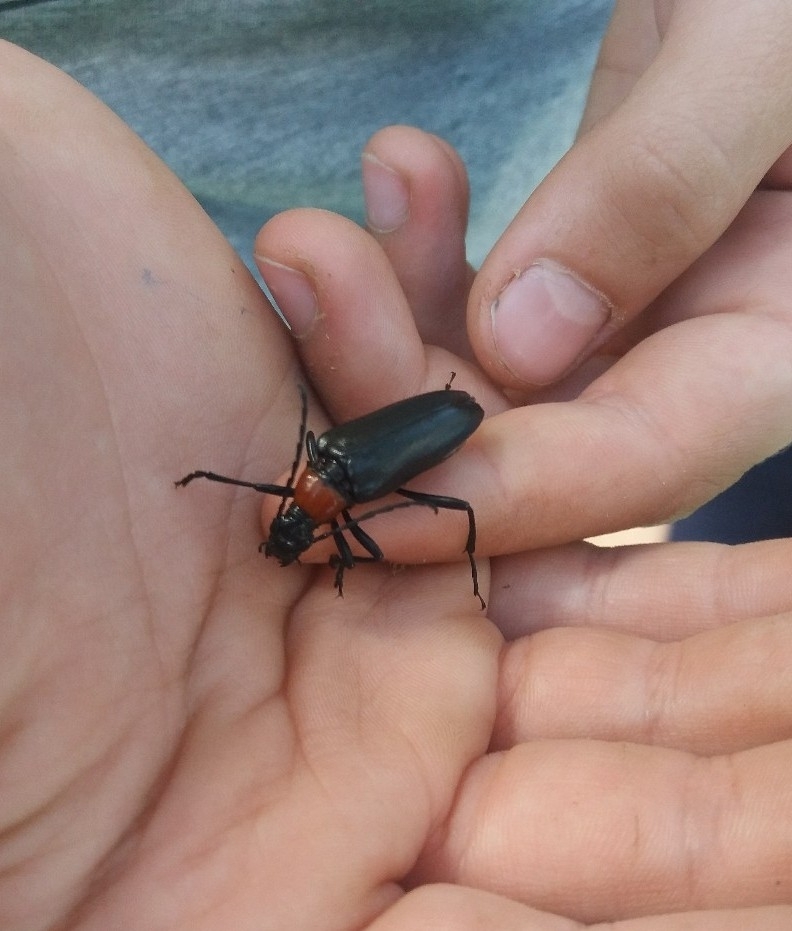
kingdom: Animalia
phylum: Arthropoda
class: Insecta
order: Coleoptera
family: Cerambycidae
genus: Leptura
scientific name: Leptura thoracica
